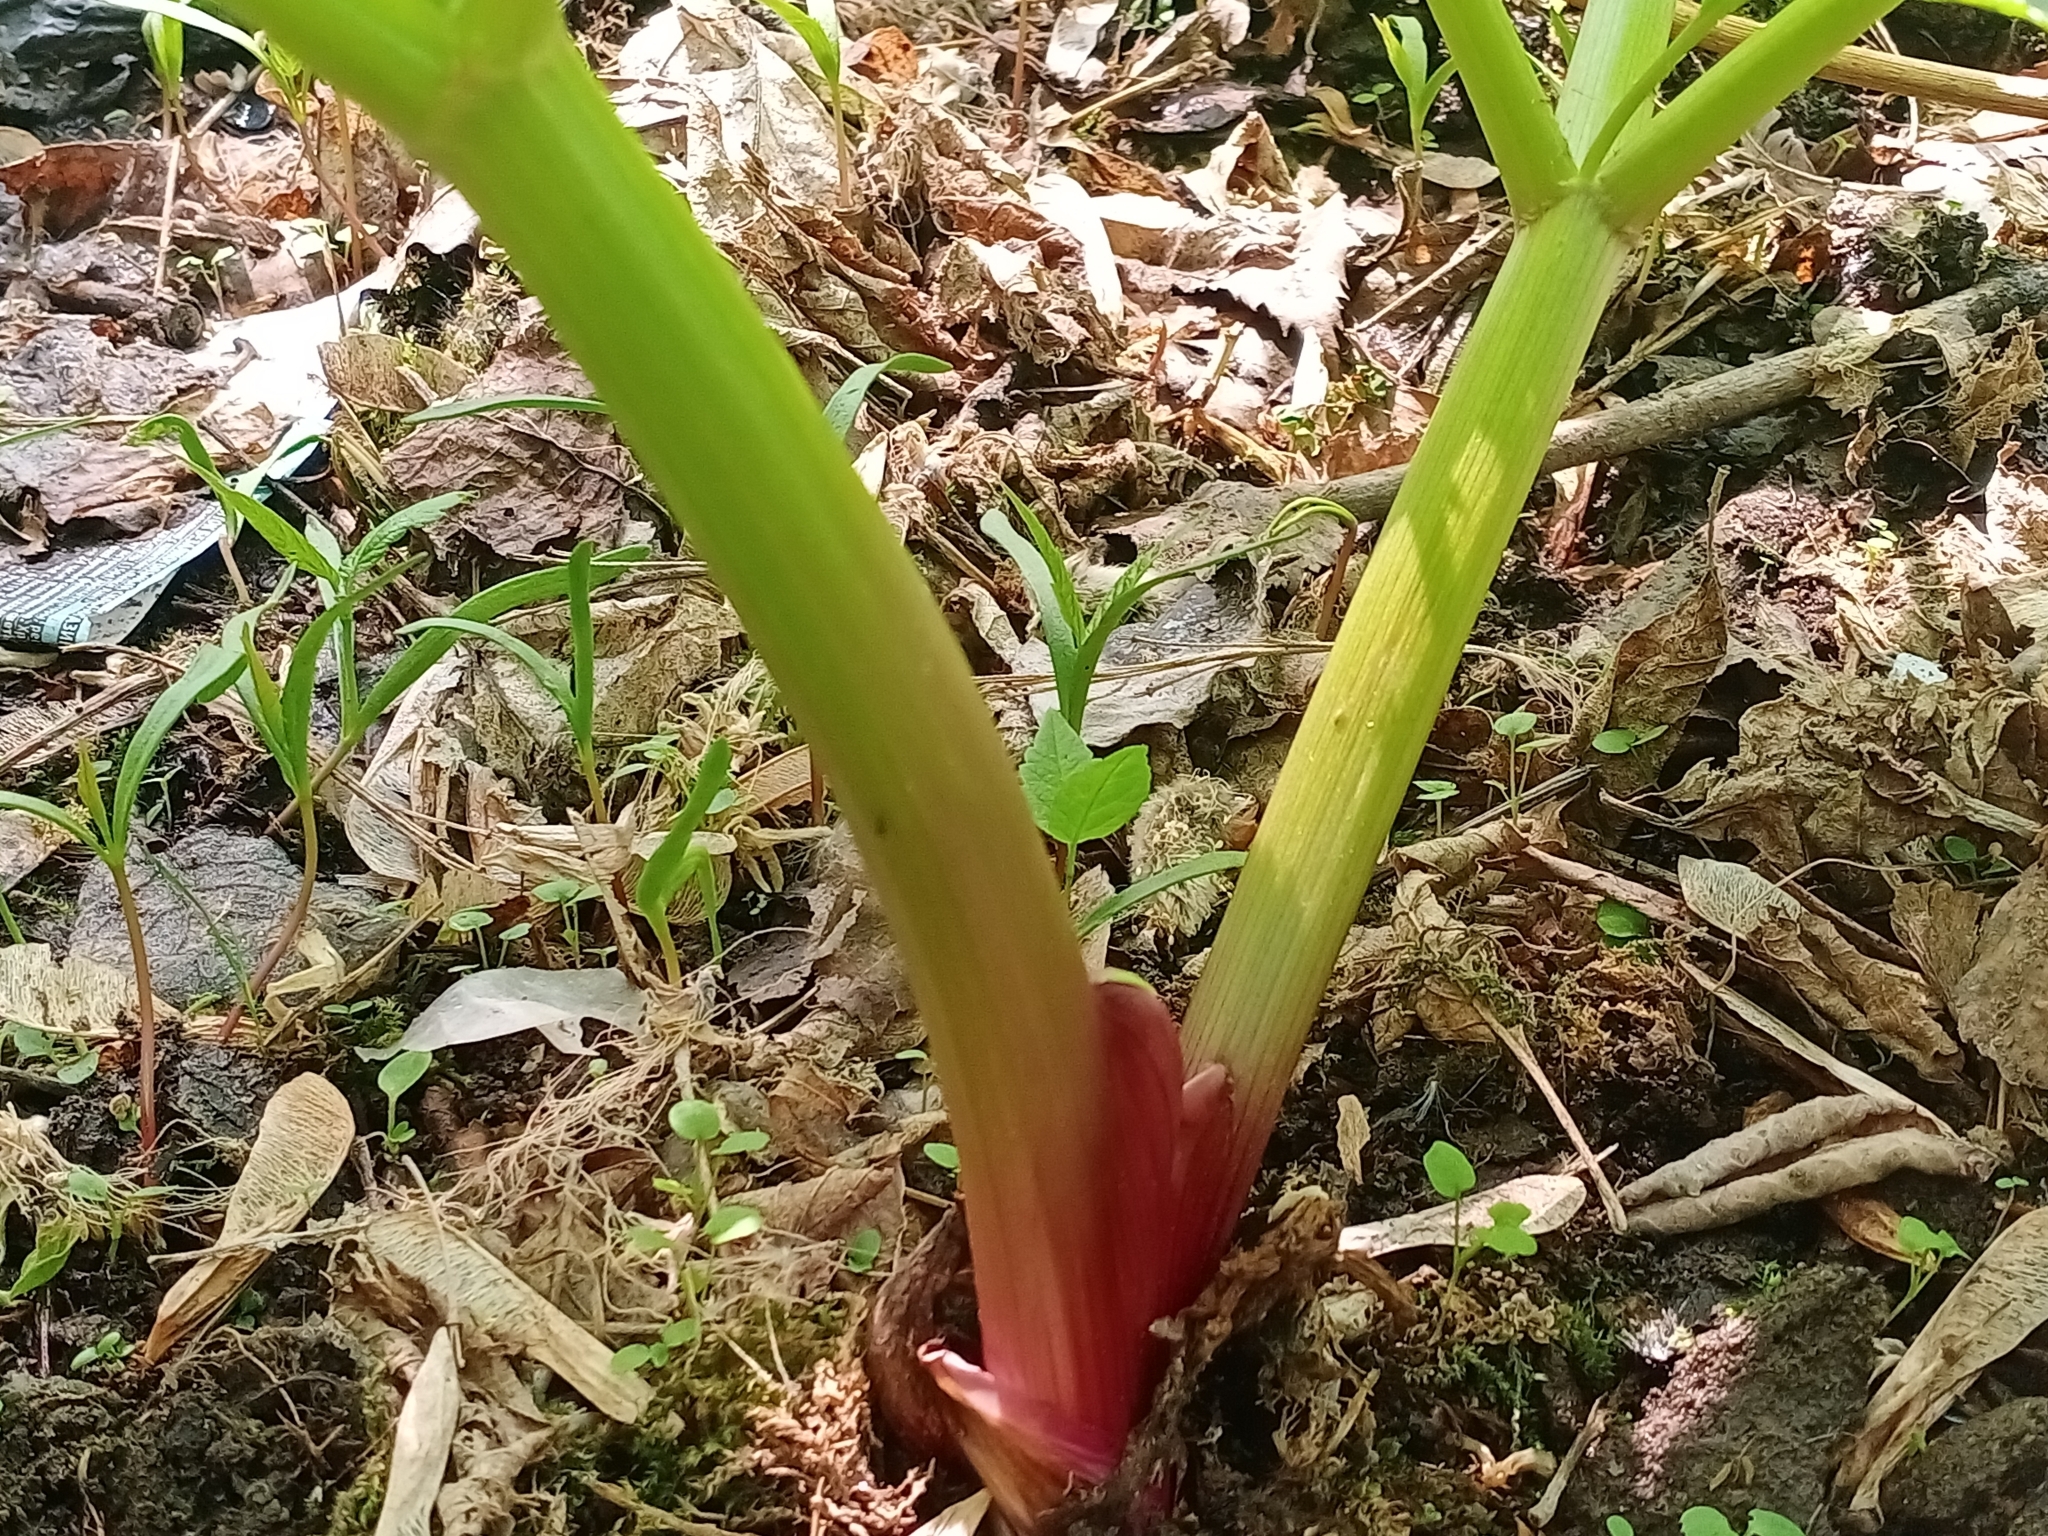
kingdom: Plantae
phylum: Tracheophyta
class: Magnoliopsida
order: Apiales
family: Apiaceae
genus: Angelica
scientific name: Angelica archangelica
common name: Garden angelica
